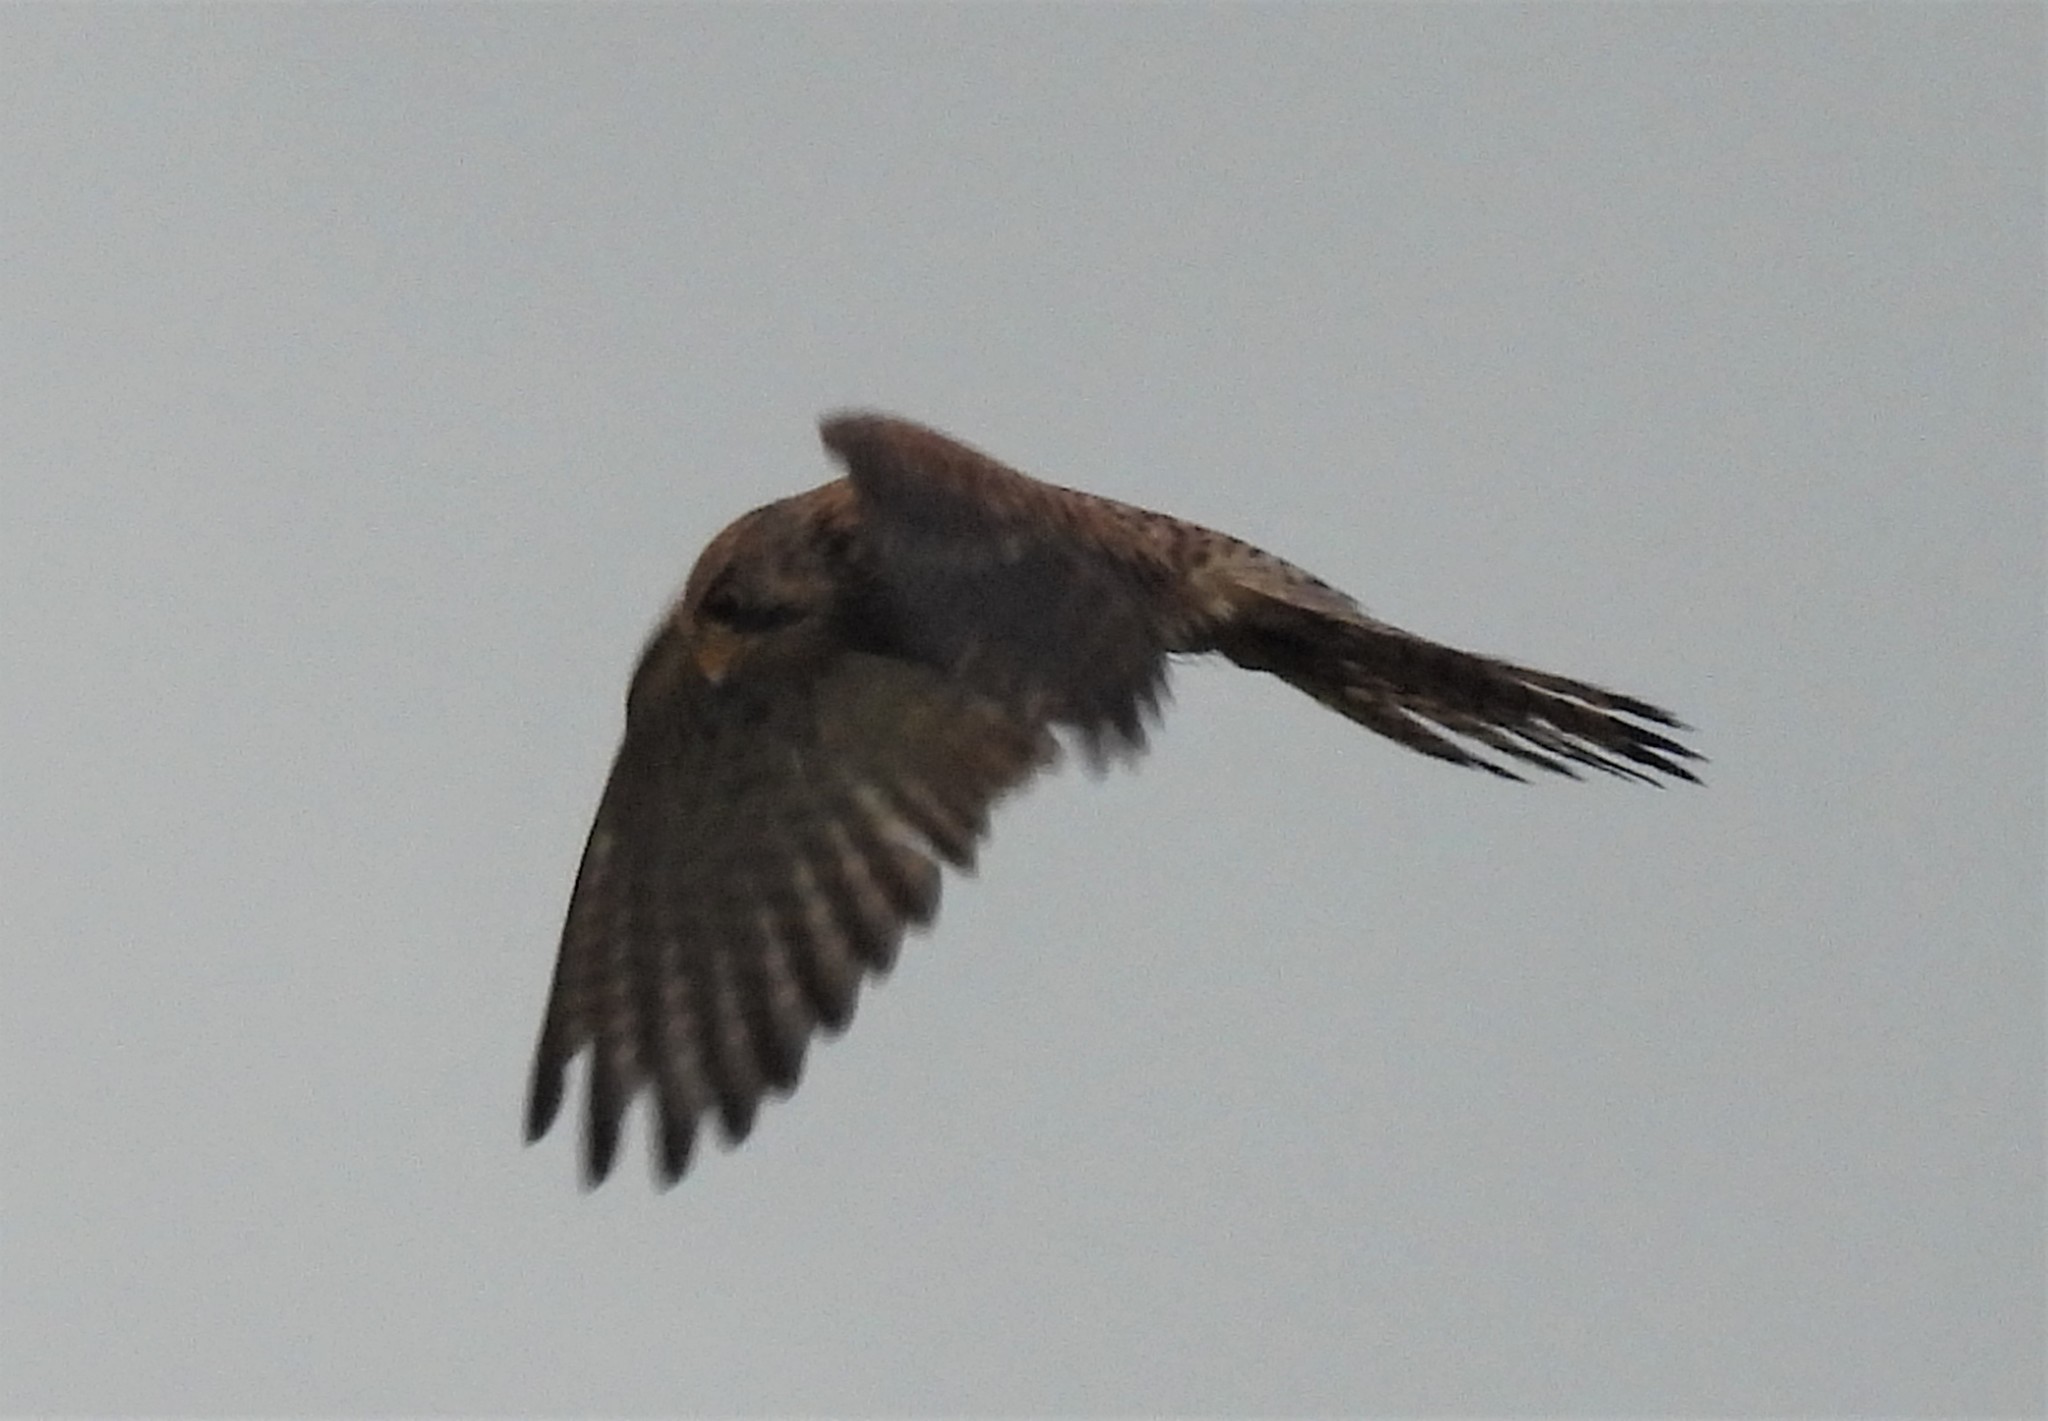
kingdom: Animalia
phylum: Chordata
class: Aves
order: Falconiformes
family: Falconidae
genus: Falco
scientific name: Falco tinnunculus
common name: Common kestrel
